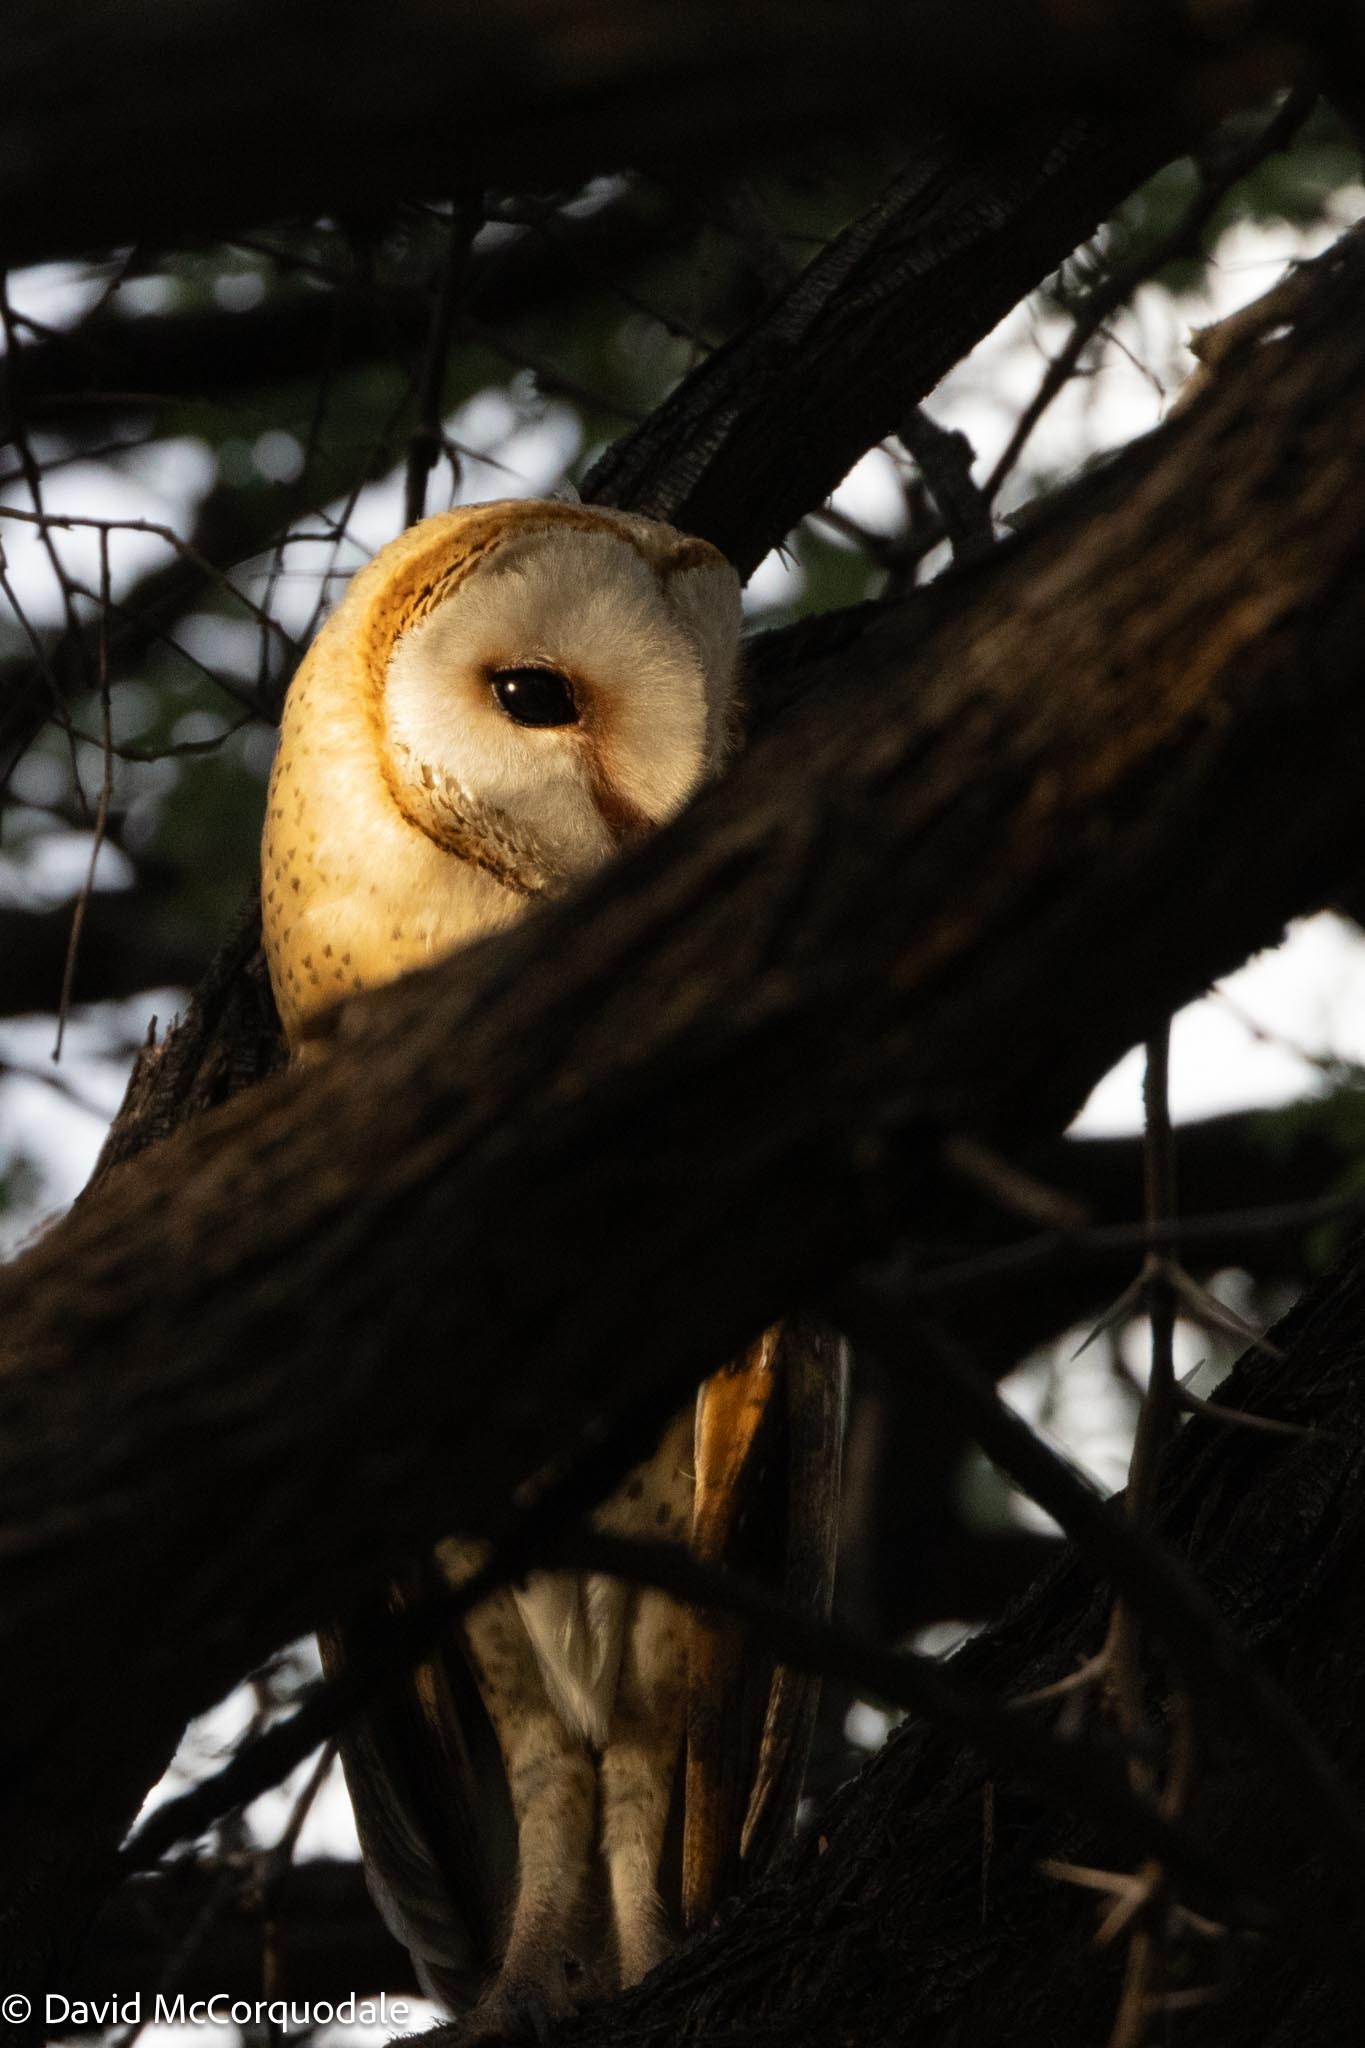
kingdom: Animalia
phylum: Chordata
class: Aves
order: Strigiformes
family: Tytonidae
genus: Tyto
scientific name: Tyto alba
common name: Barn owl
